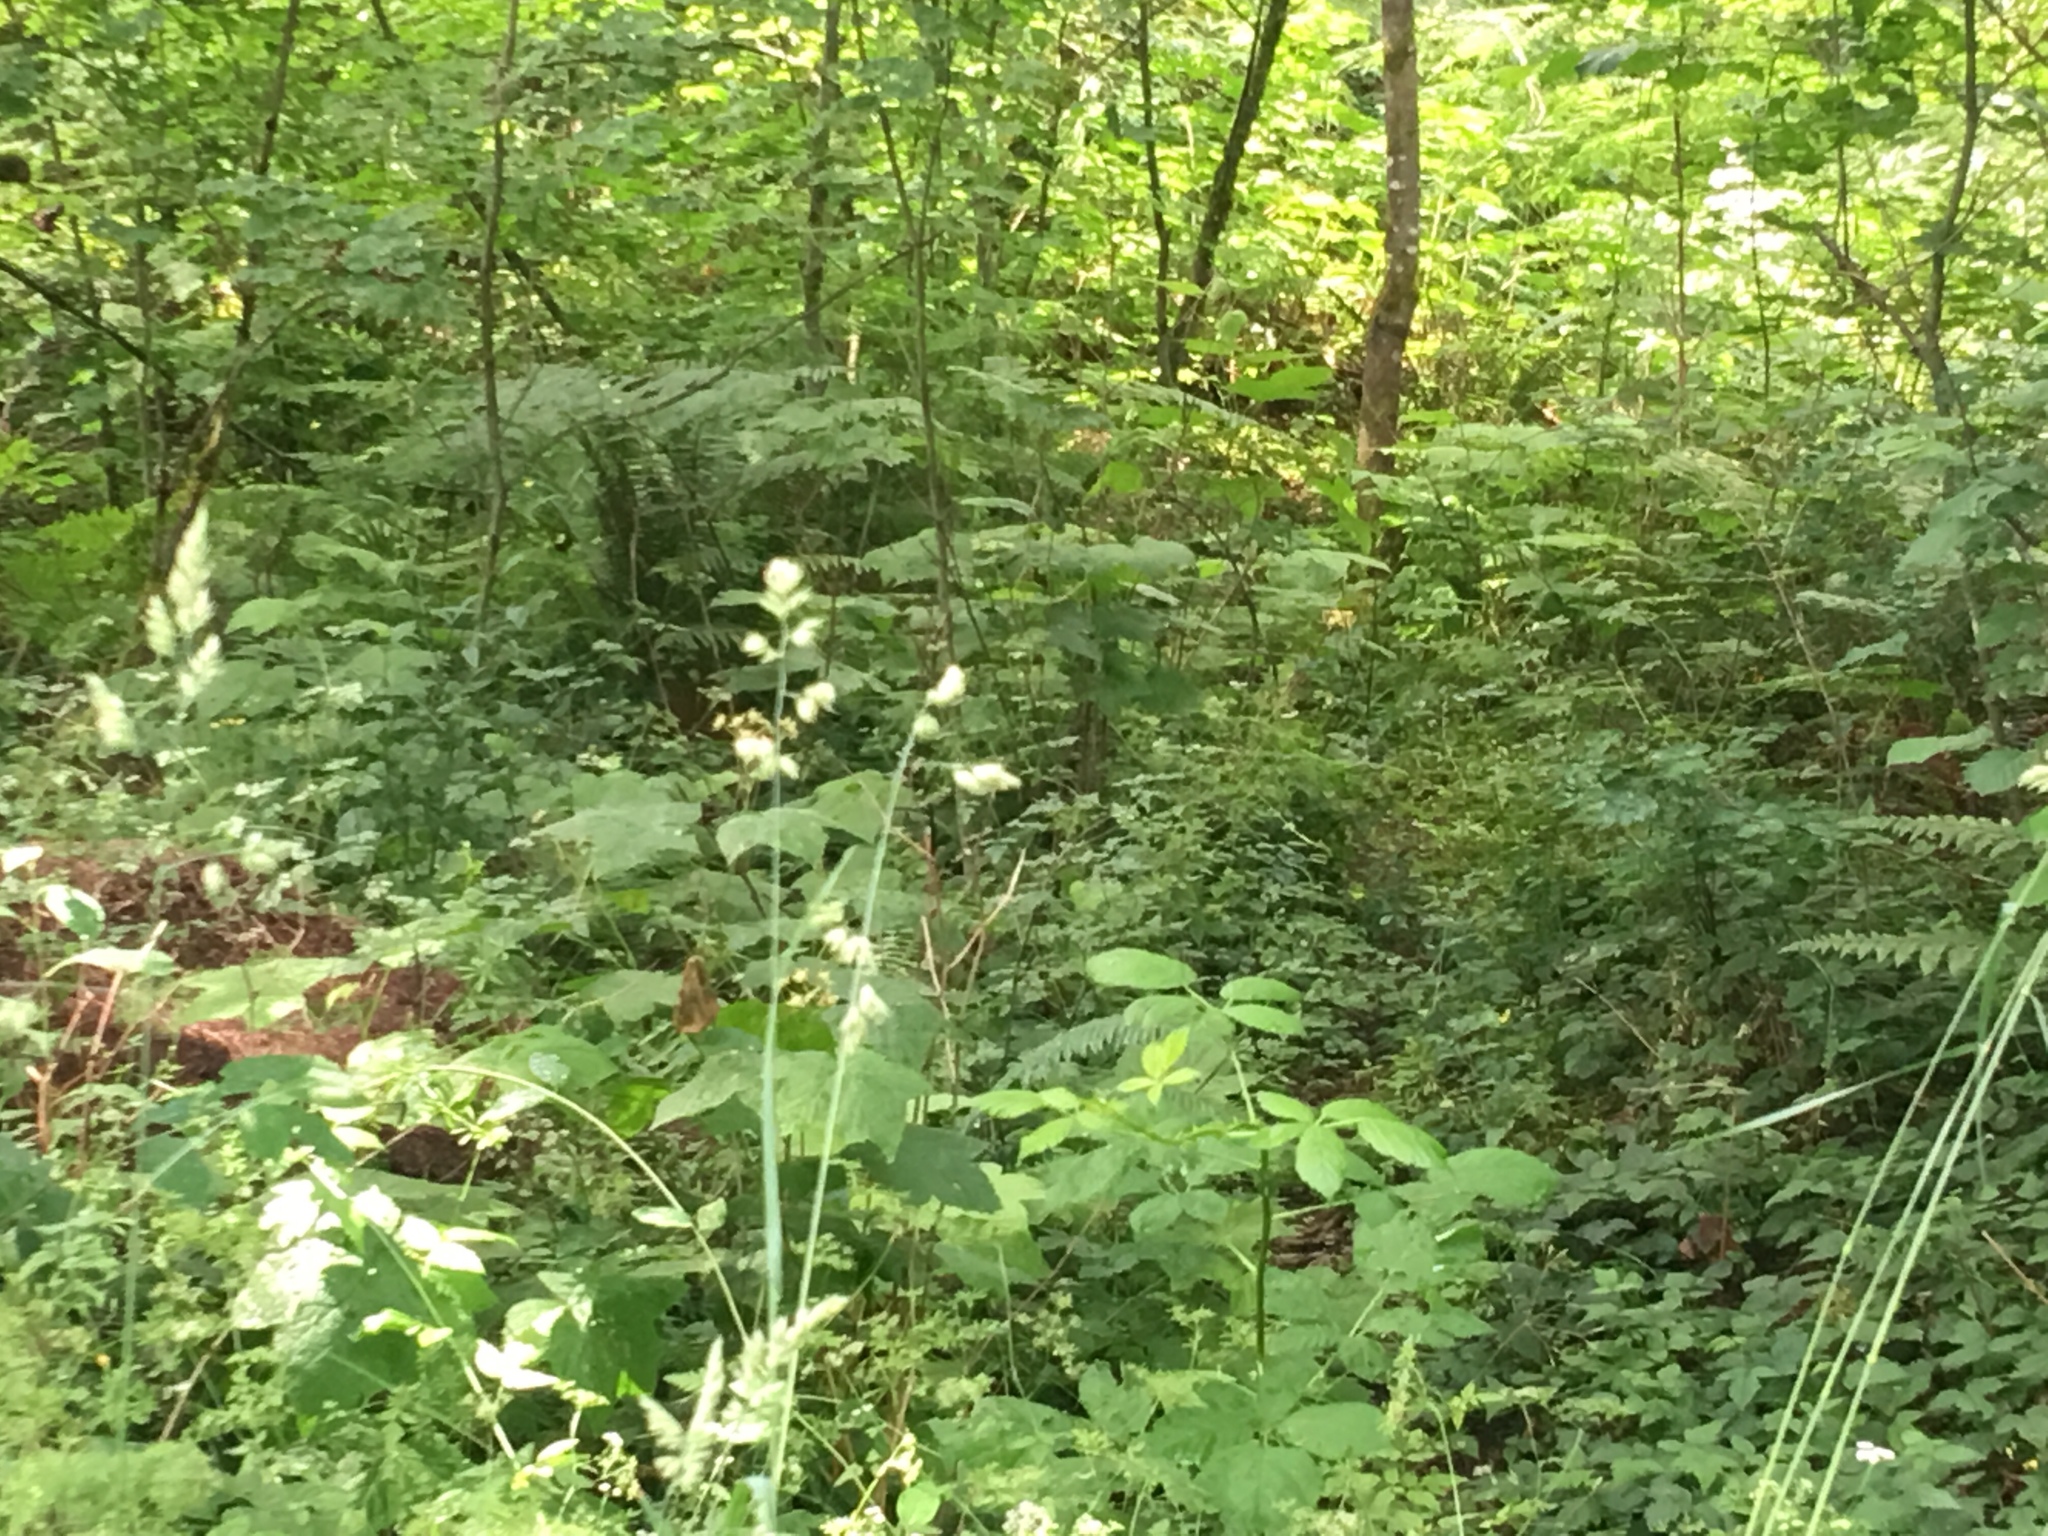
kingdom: Plantae
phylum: Tracheophyta
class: Magnoliopsida
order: Apiales
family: Apiaceae
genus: Chaerophyllum
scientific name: Chaerophyllum temulum
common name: Rough chervil
